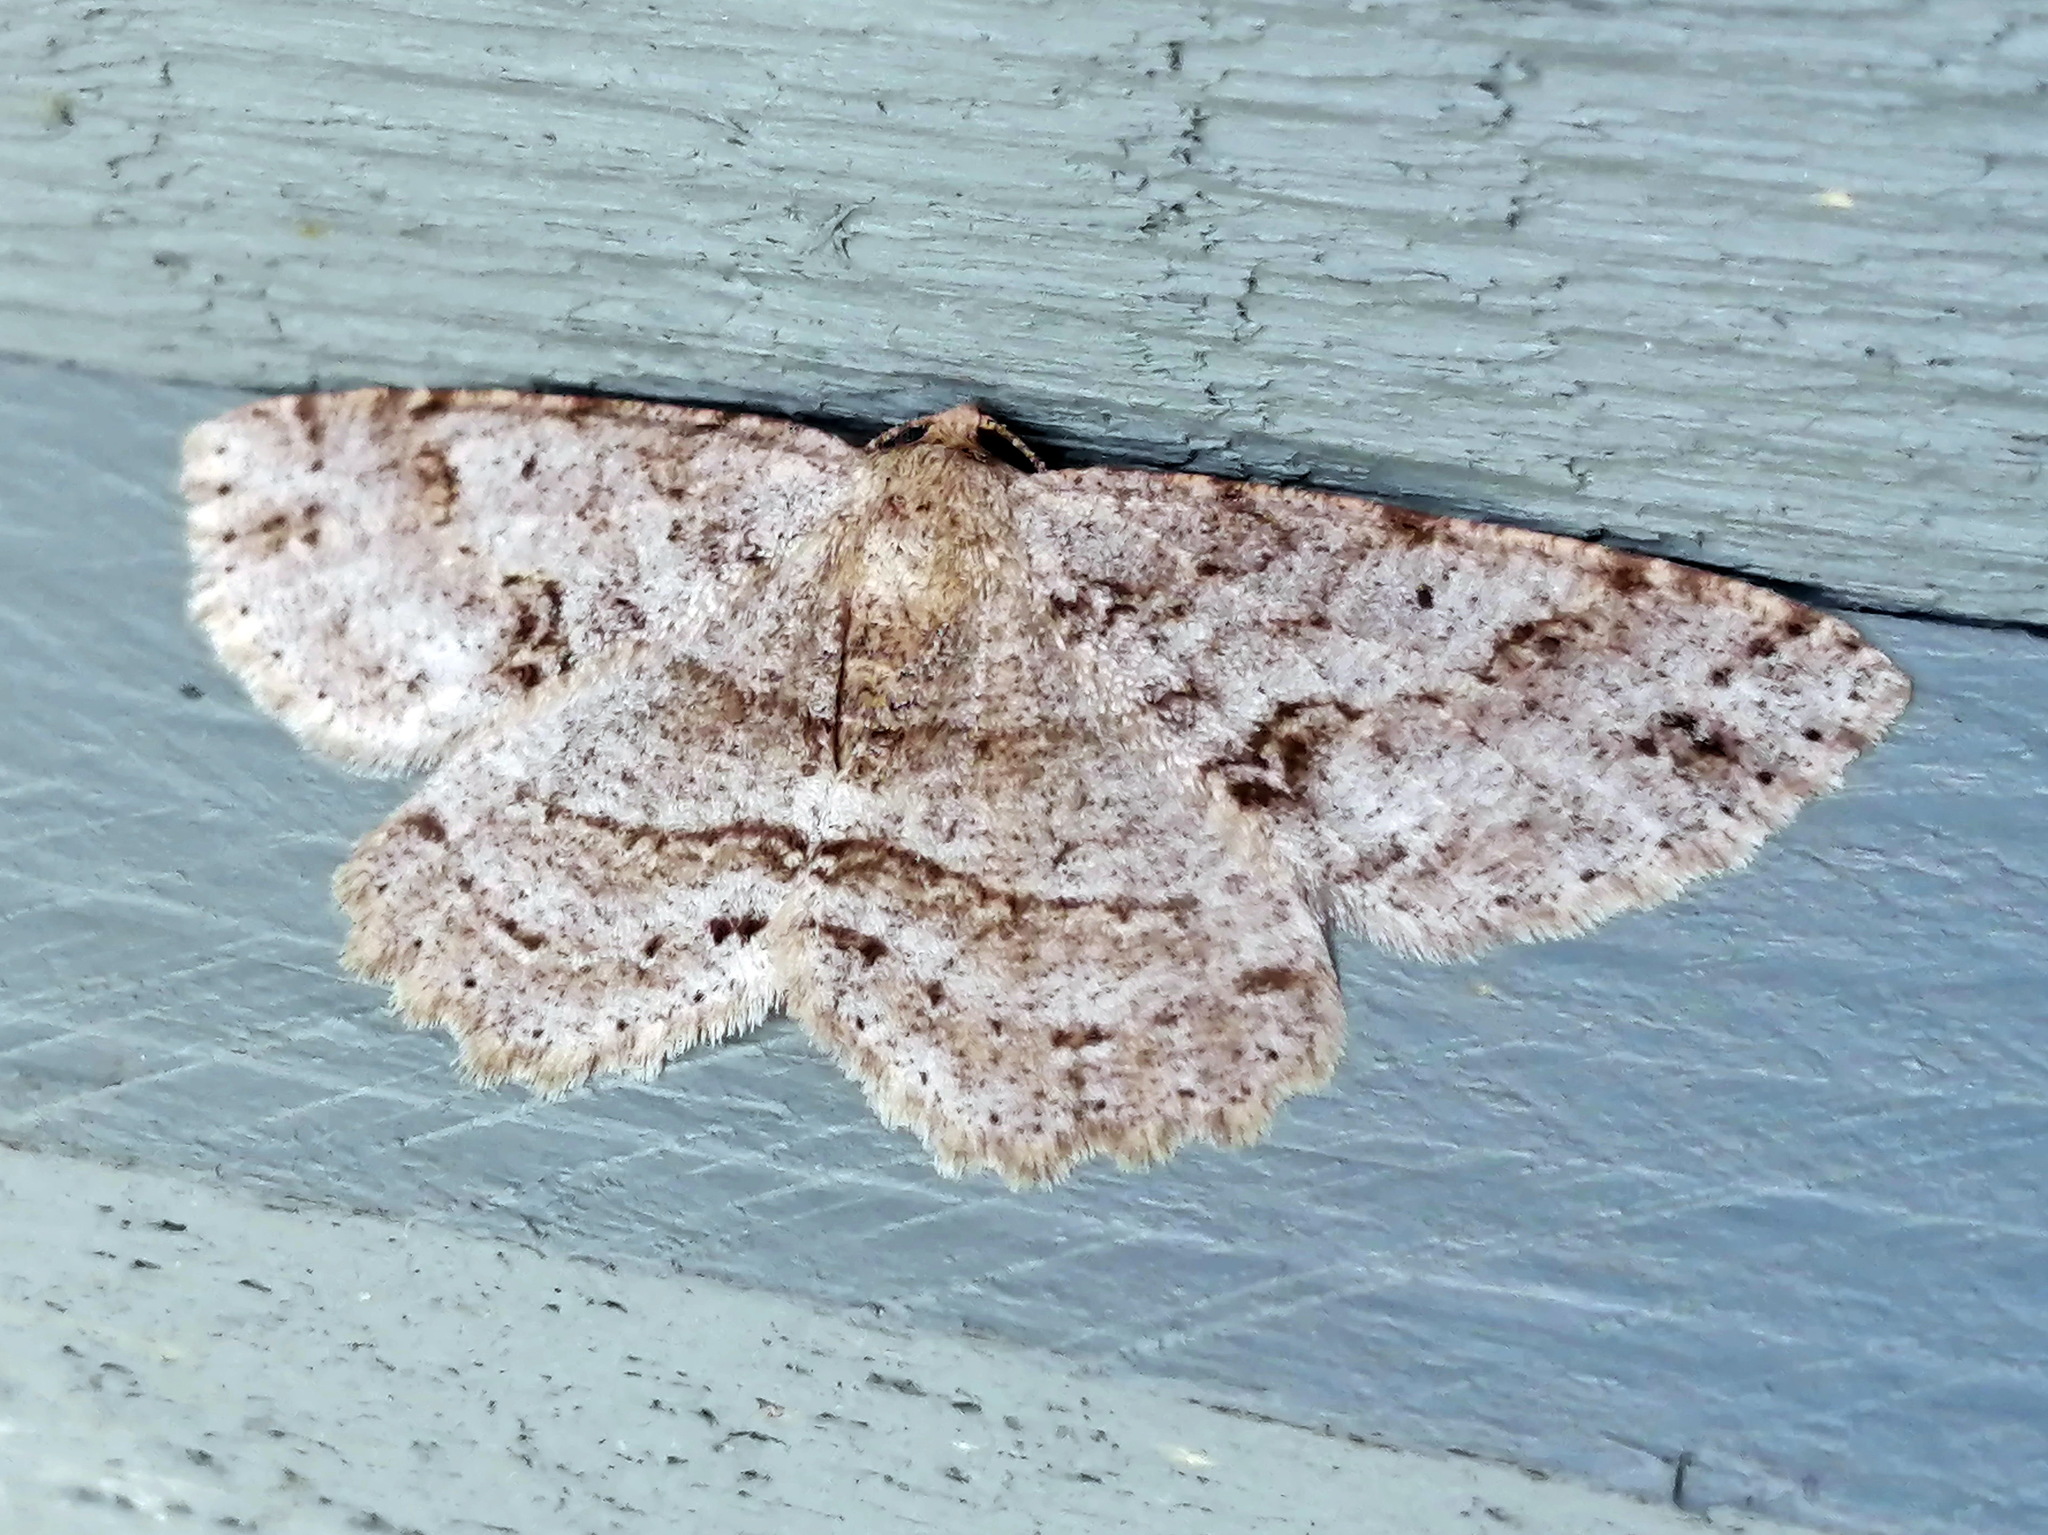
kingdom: Animalia
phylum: Arthropoda
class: Insecta
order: Lepidoptera
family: Geometridae
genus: Melanolophia
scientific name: Melanolophia canadaria
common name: Canadian melanolophia
